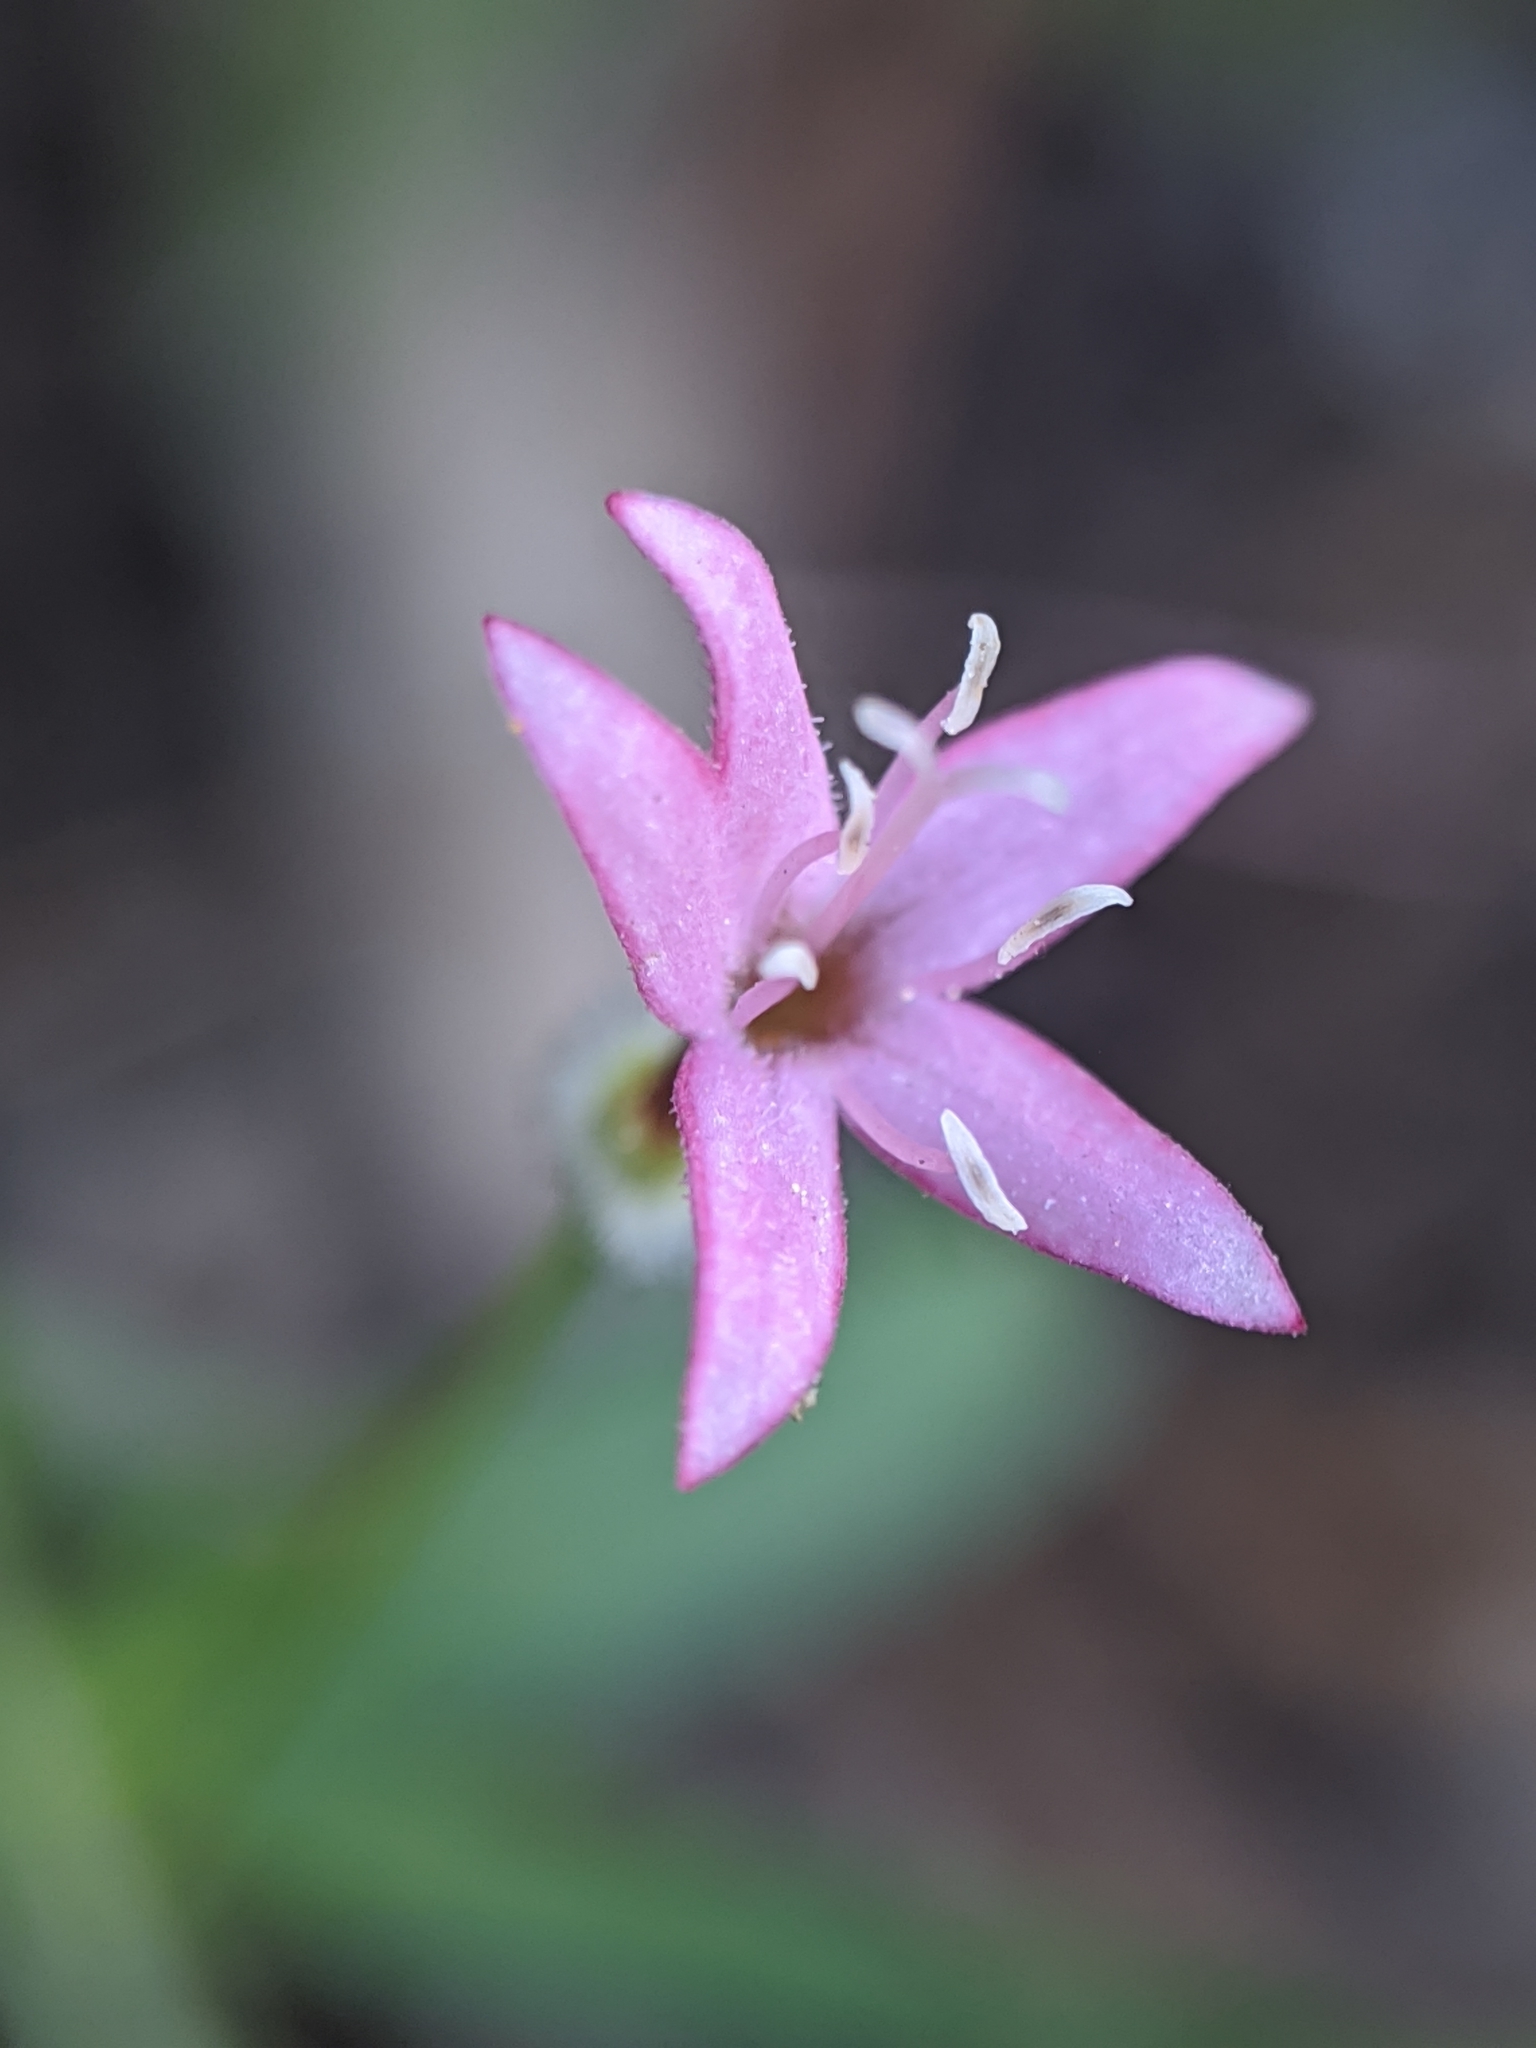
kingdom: Plantae
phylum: Tracheophyta
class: Magnoliopsida
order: Gentianales
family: Rubiaceae
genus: Kelloggia
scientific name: Kelloggia galioides
